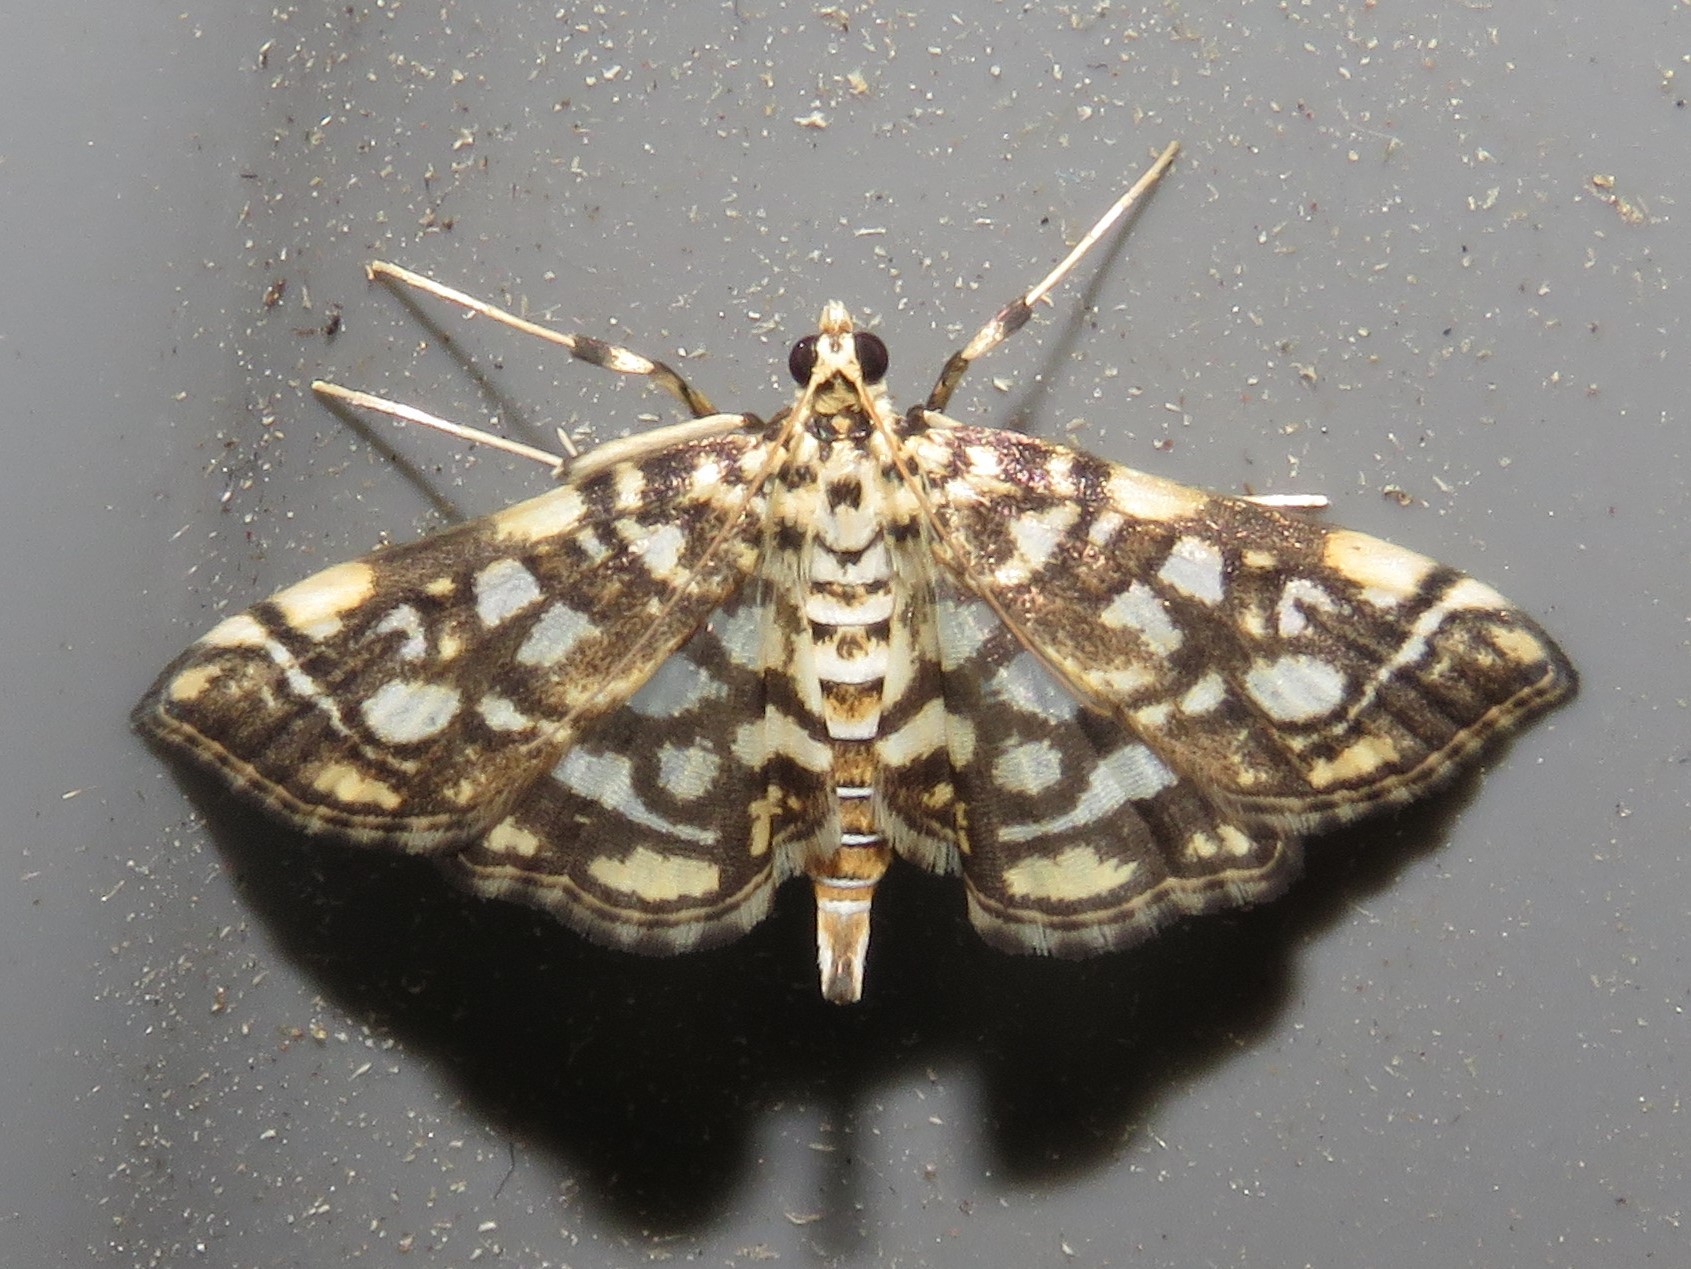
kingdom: Animalia
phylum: Arthropoda
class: Insecta
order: Lepidoptera
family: Crambidae
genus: Lygropia
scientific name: Lygropia rivulalis
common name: Bog lygropia moth
